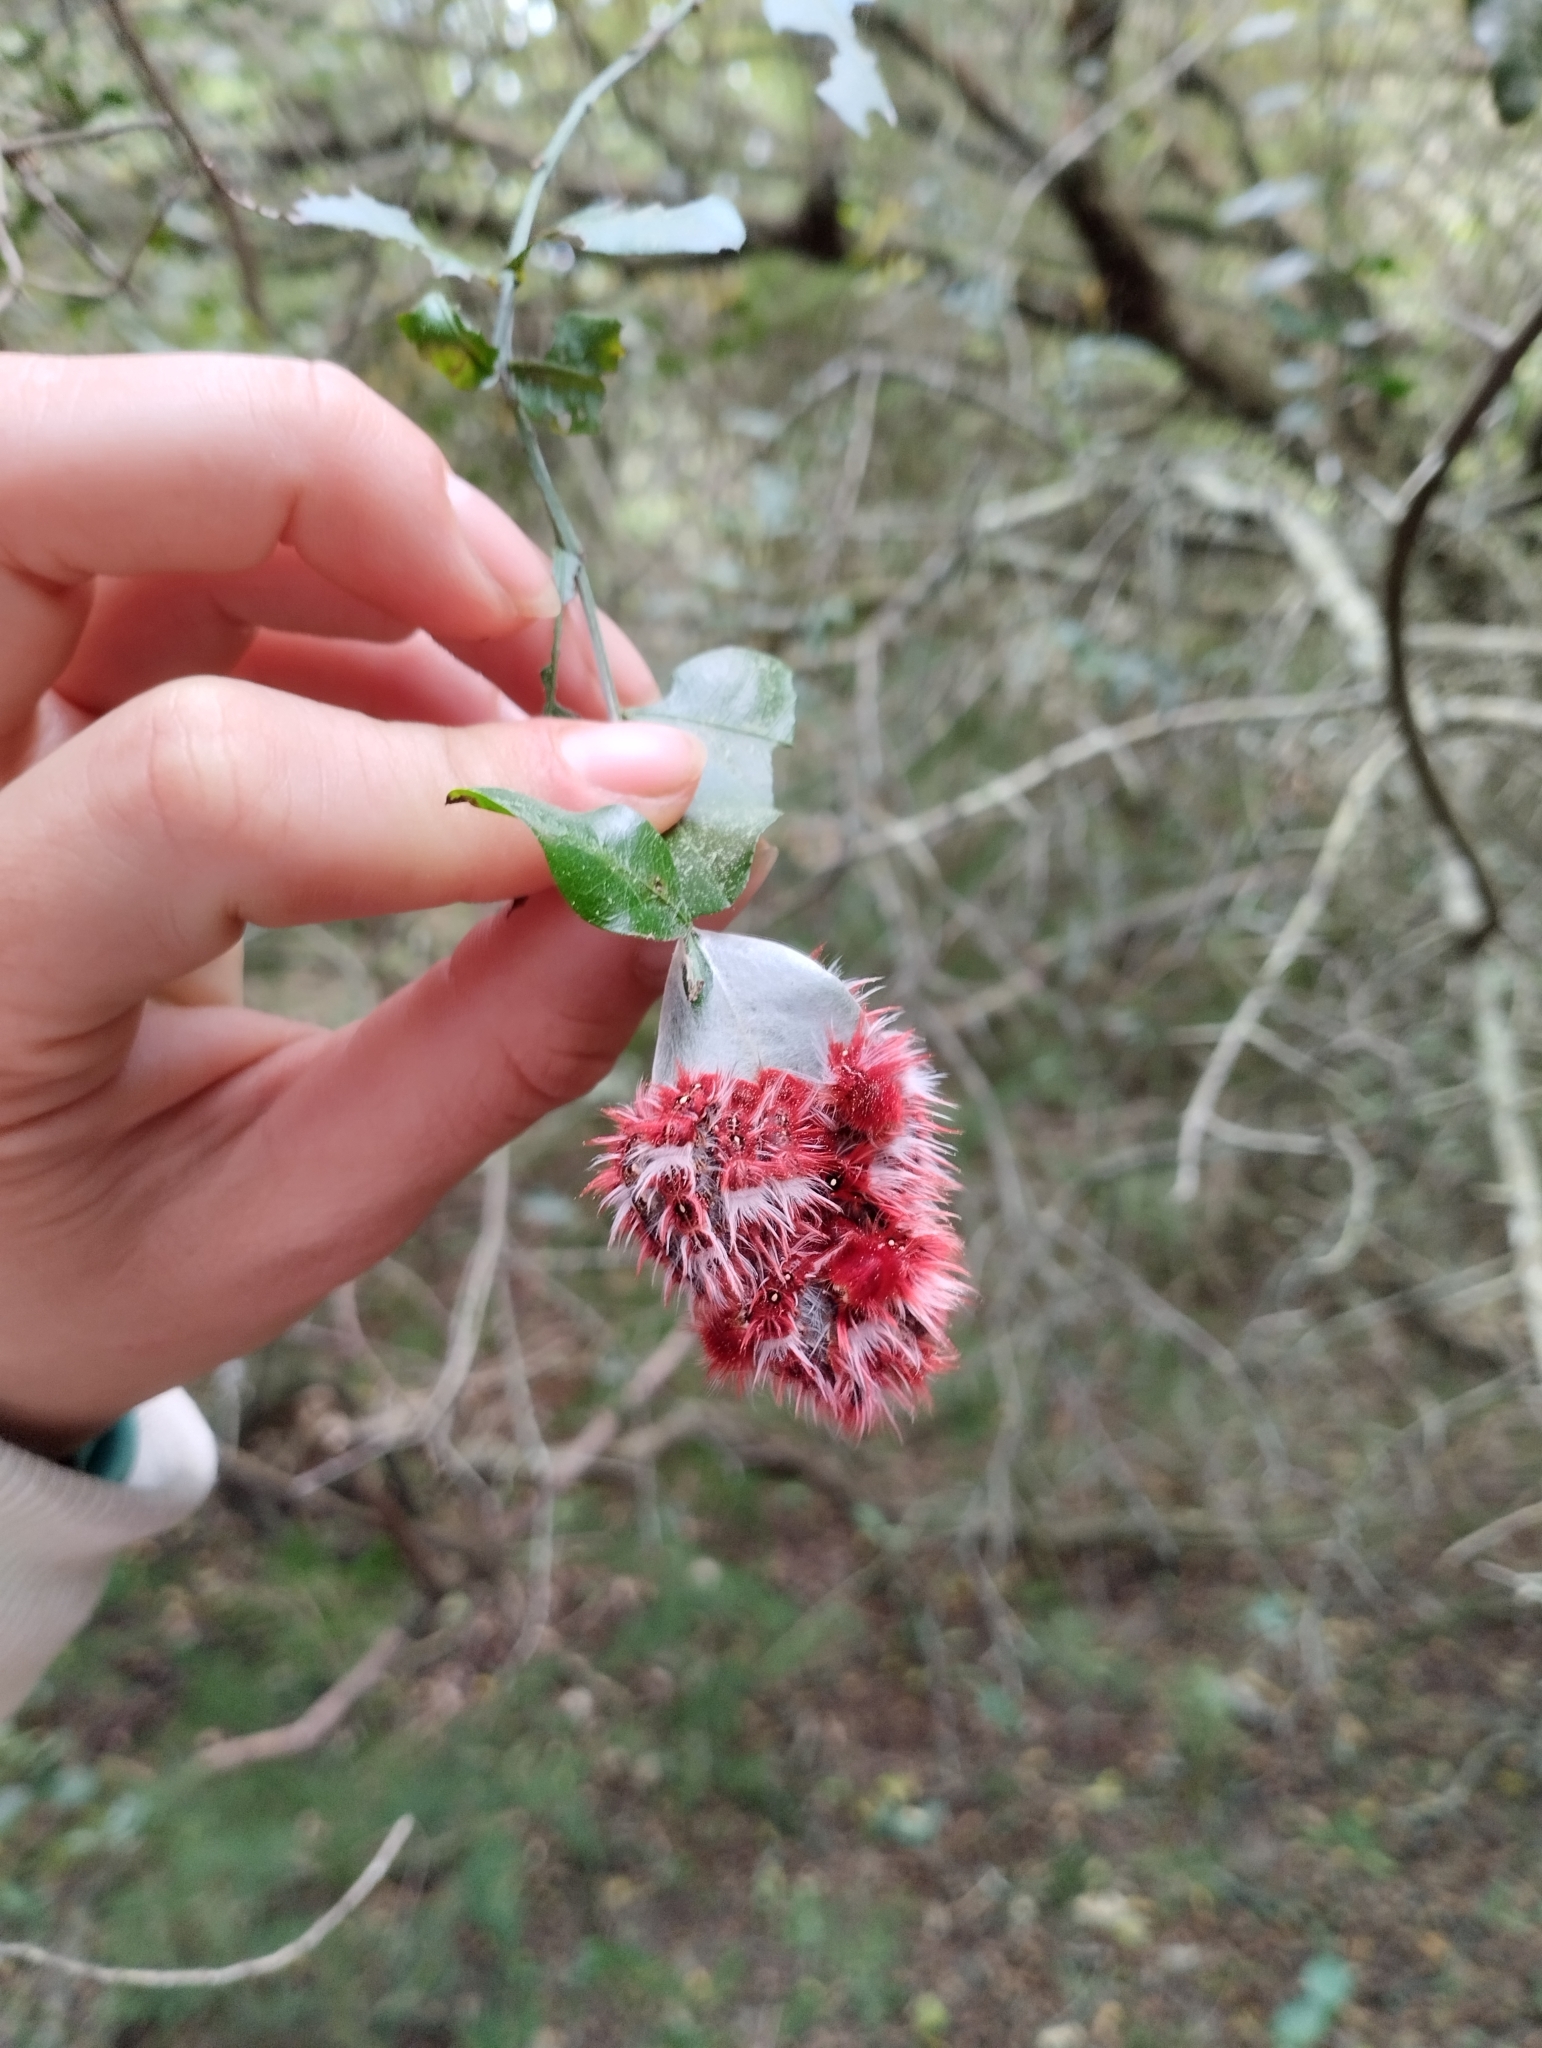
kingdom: Animalia
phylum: Arthropoda
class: Insecta
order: Lepidoptera
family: Nymphalidae
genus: Morpho
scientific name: Morpho epistrophus
